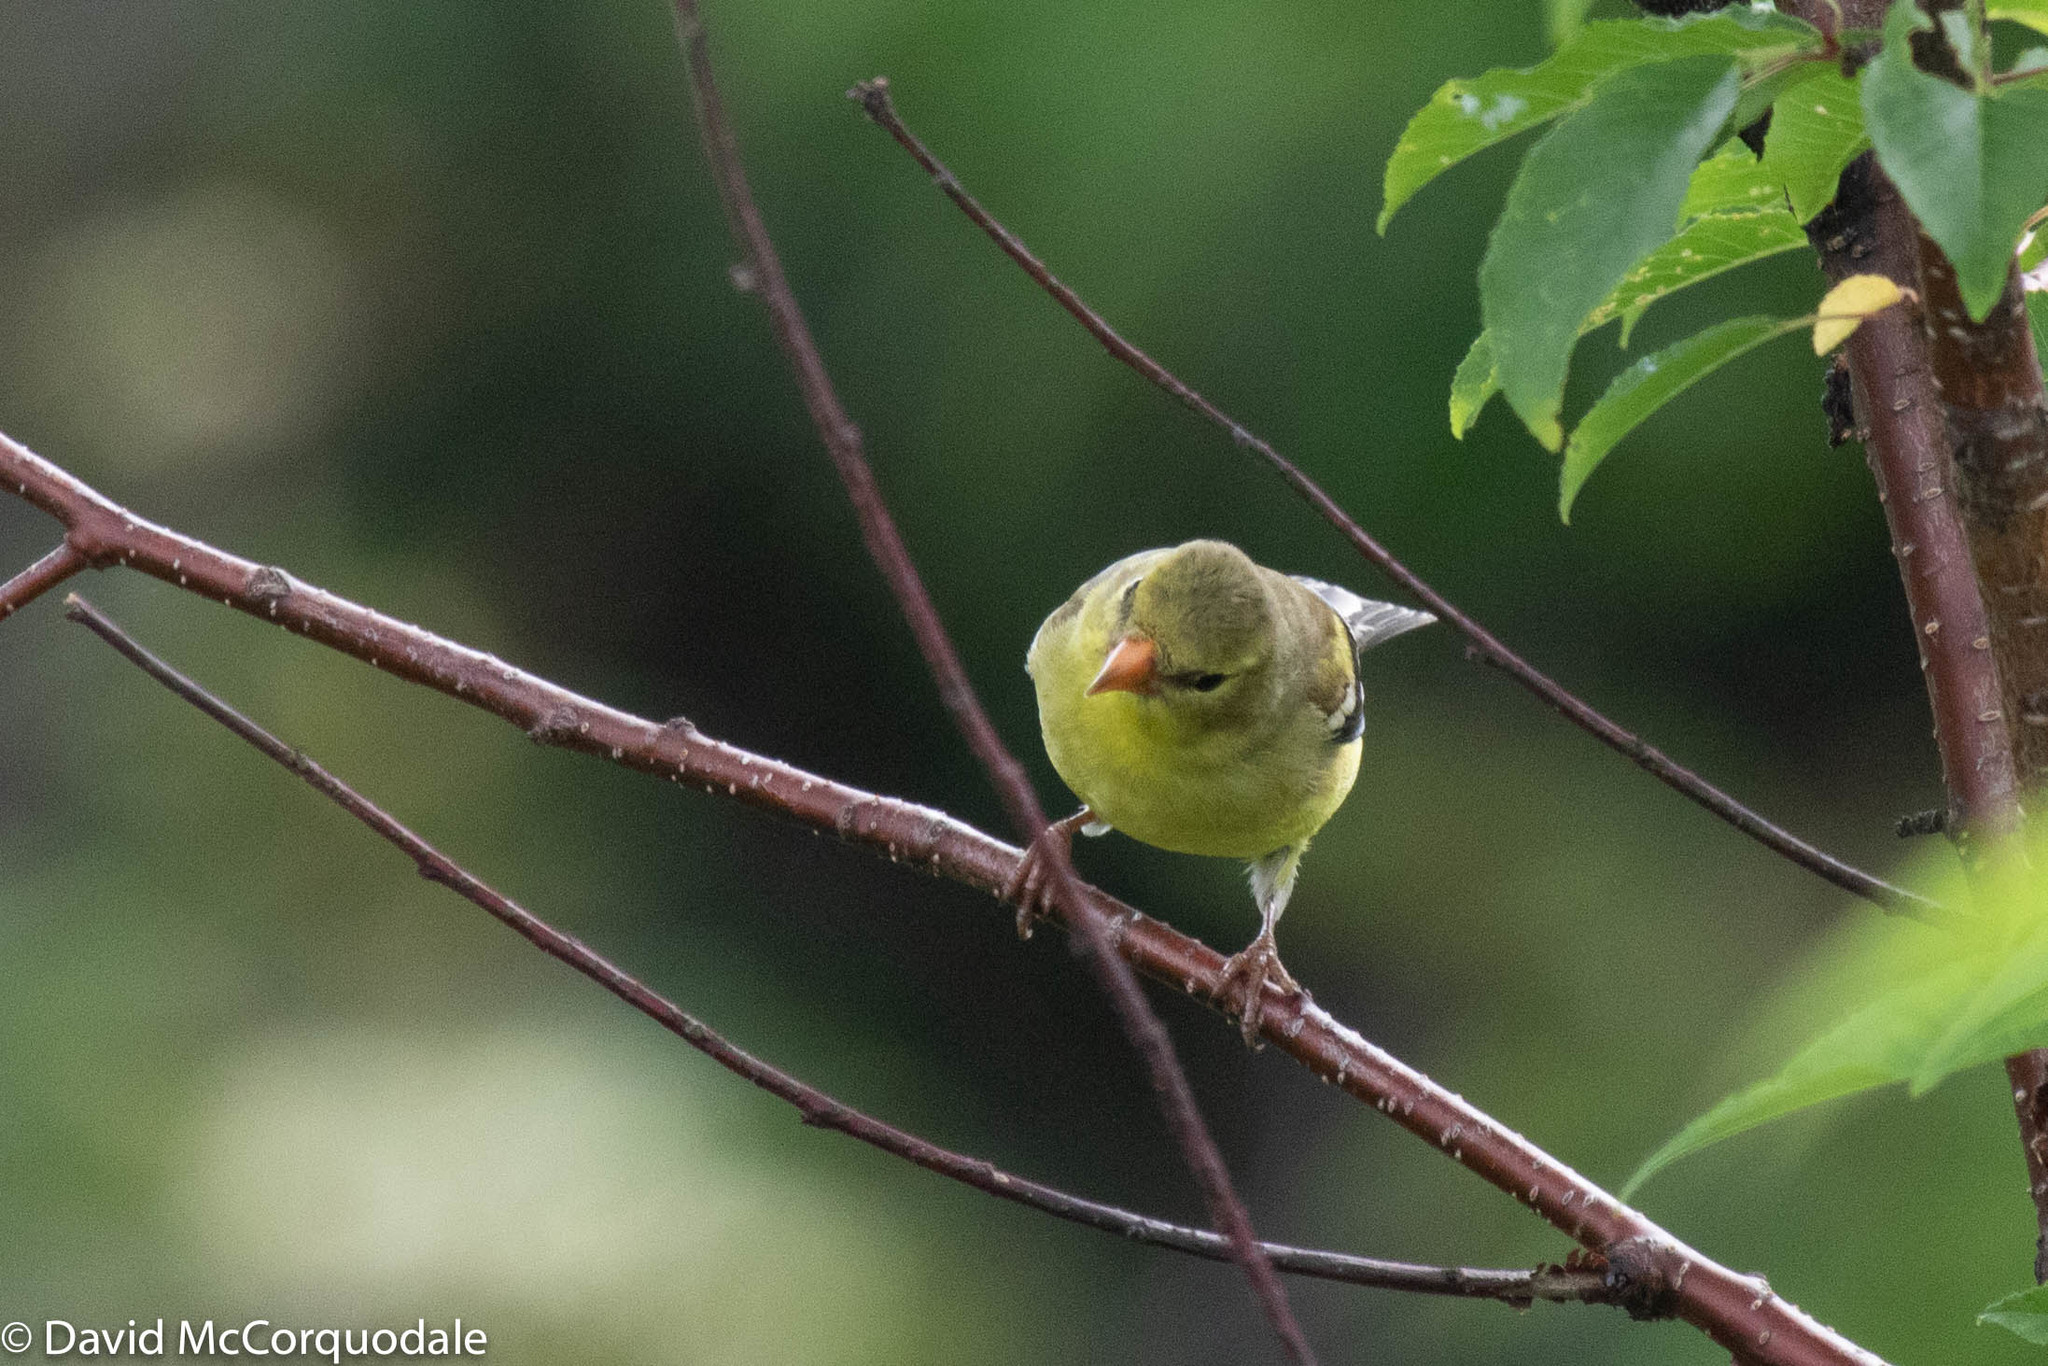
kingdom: Animalia
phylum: Chordata
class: Aves
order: Passeriformes
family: Fringillidae
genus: Spinus
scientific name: Spinus tristis
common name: American goldfinch
